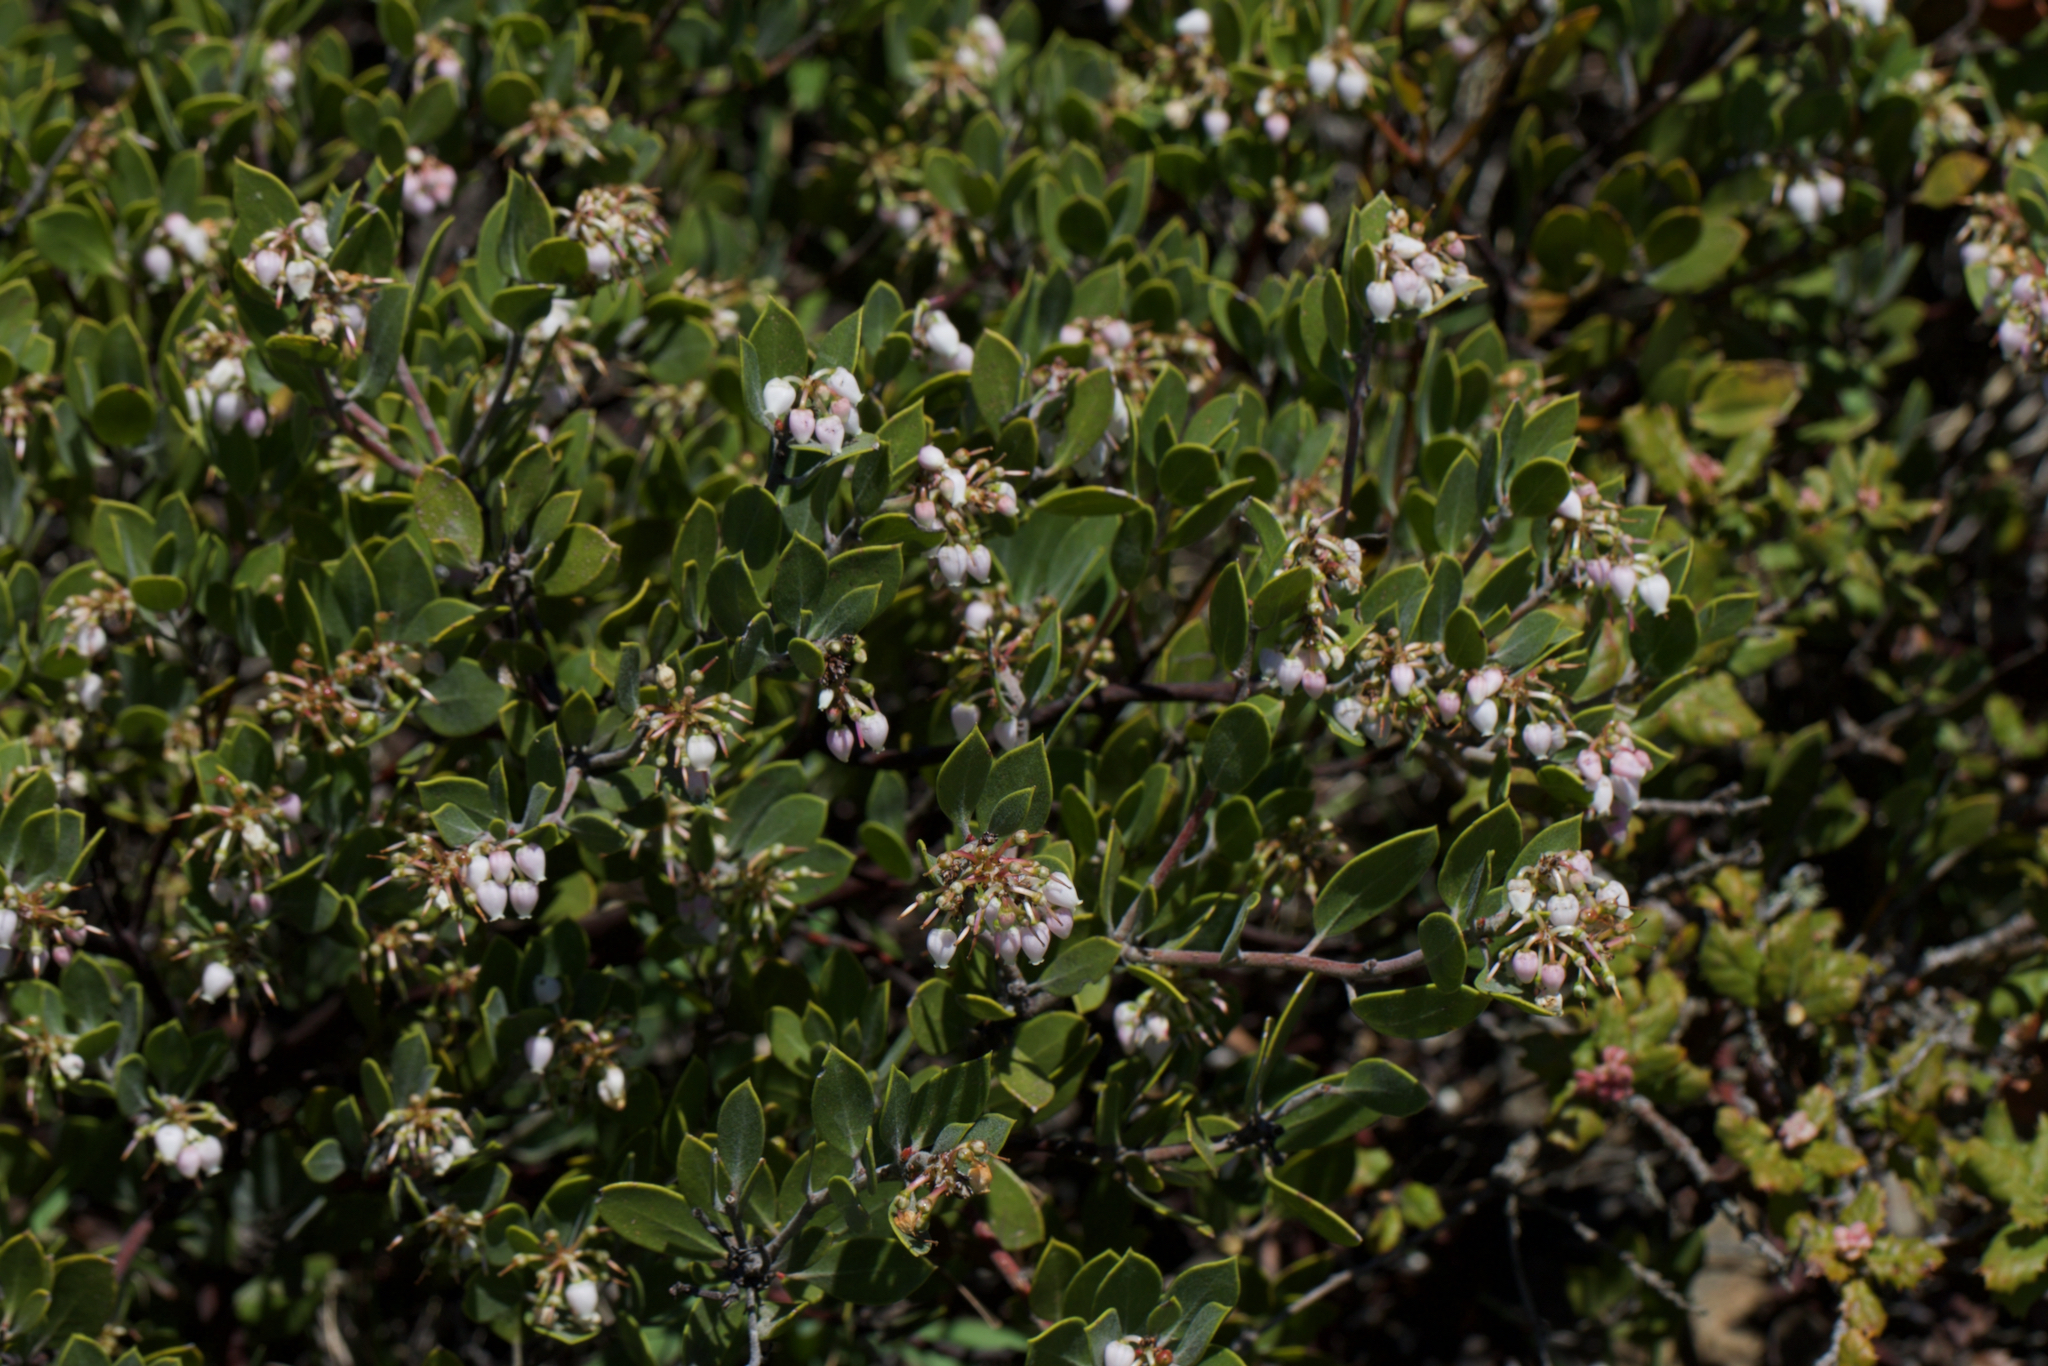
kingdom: Plantae
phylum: Tracheophyta
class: Magnoliopsida
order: Ericales
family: Ericaceae
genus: Arctostaphylos
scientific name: Arctostaphylos montana
